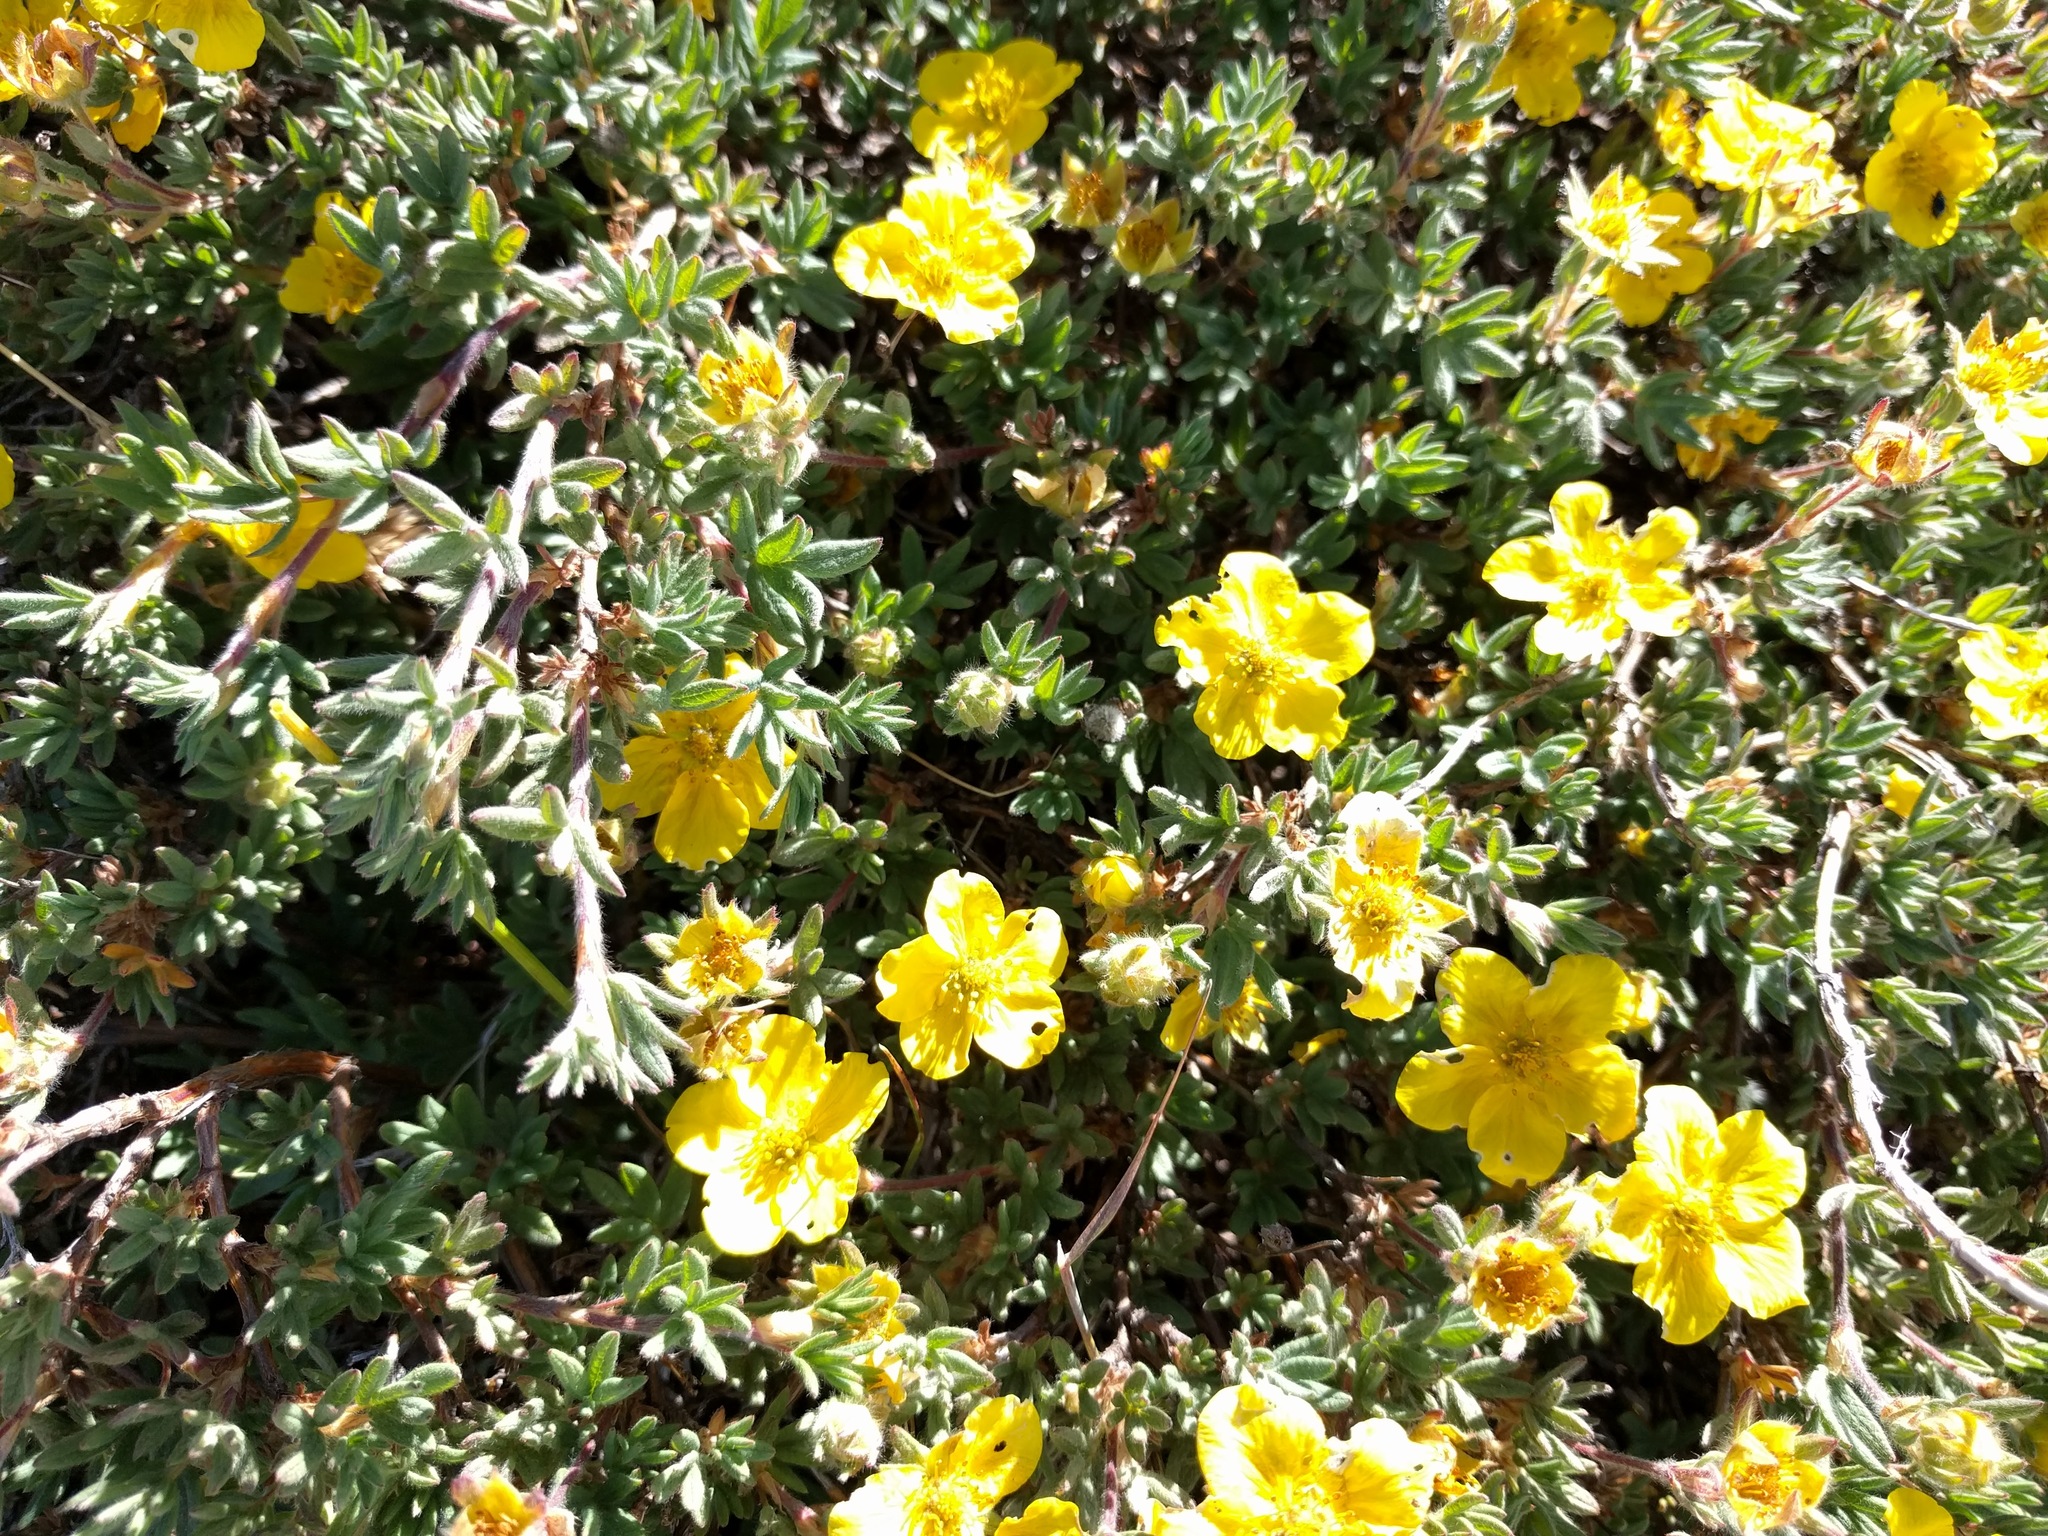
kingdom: Plantae
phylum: Tracheophyta
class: Magnoliopsida
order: Rosales
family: Rosaceae
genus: Dasiphora
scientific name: Dasiphora fruticosa
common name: Shrubby cinquefoil
